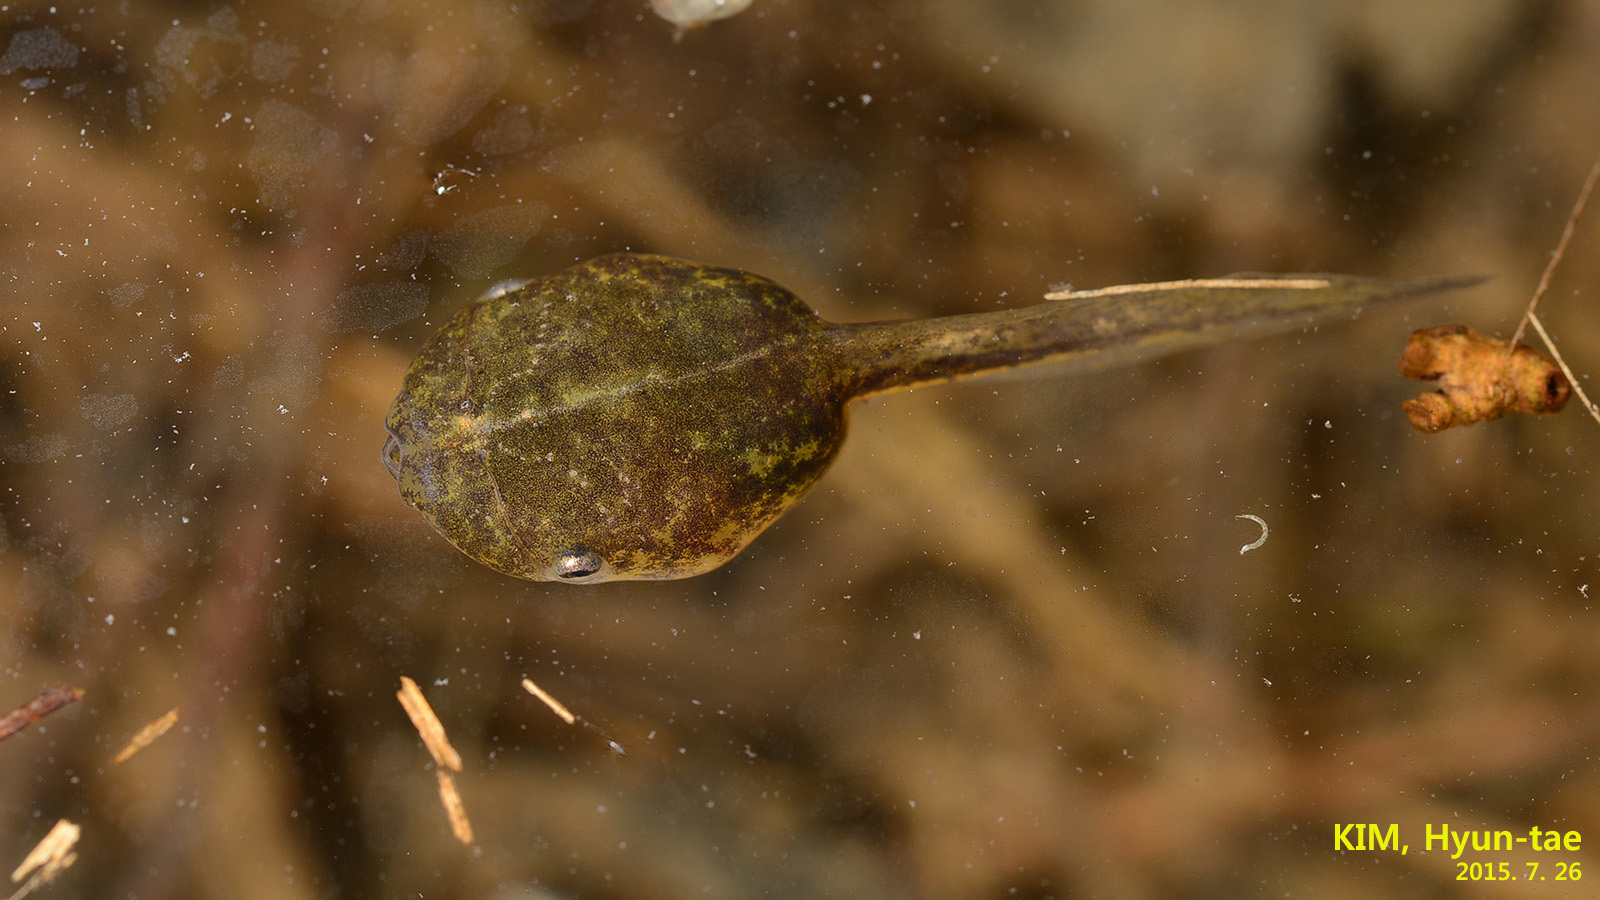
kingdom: Animalia
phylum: Chordata
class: Amphibia
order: Anura
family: Microhylidae
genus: Kaloula
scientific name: Kaloula borealis
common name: Boreal digging frog
